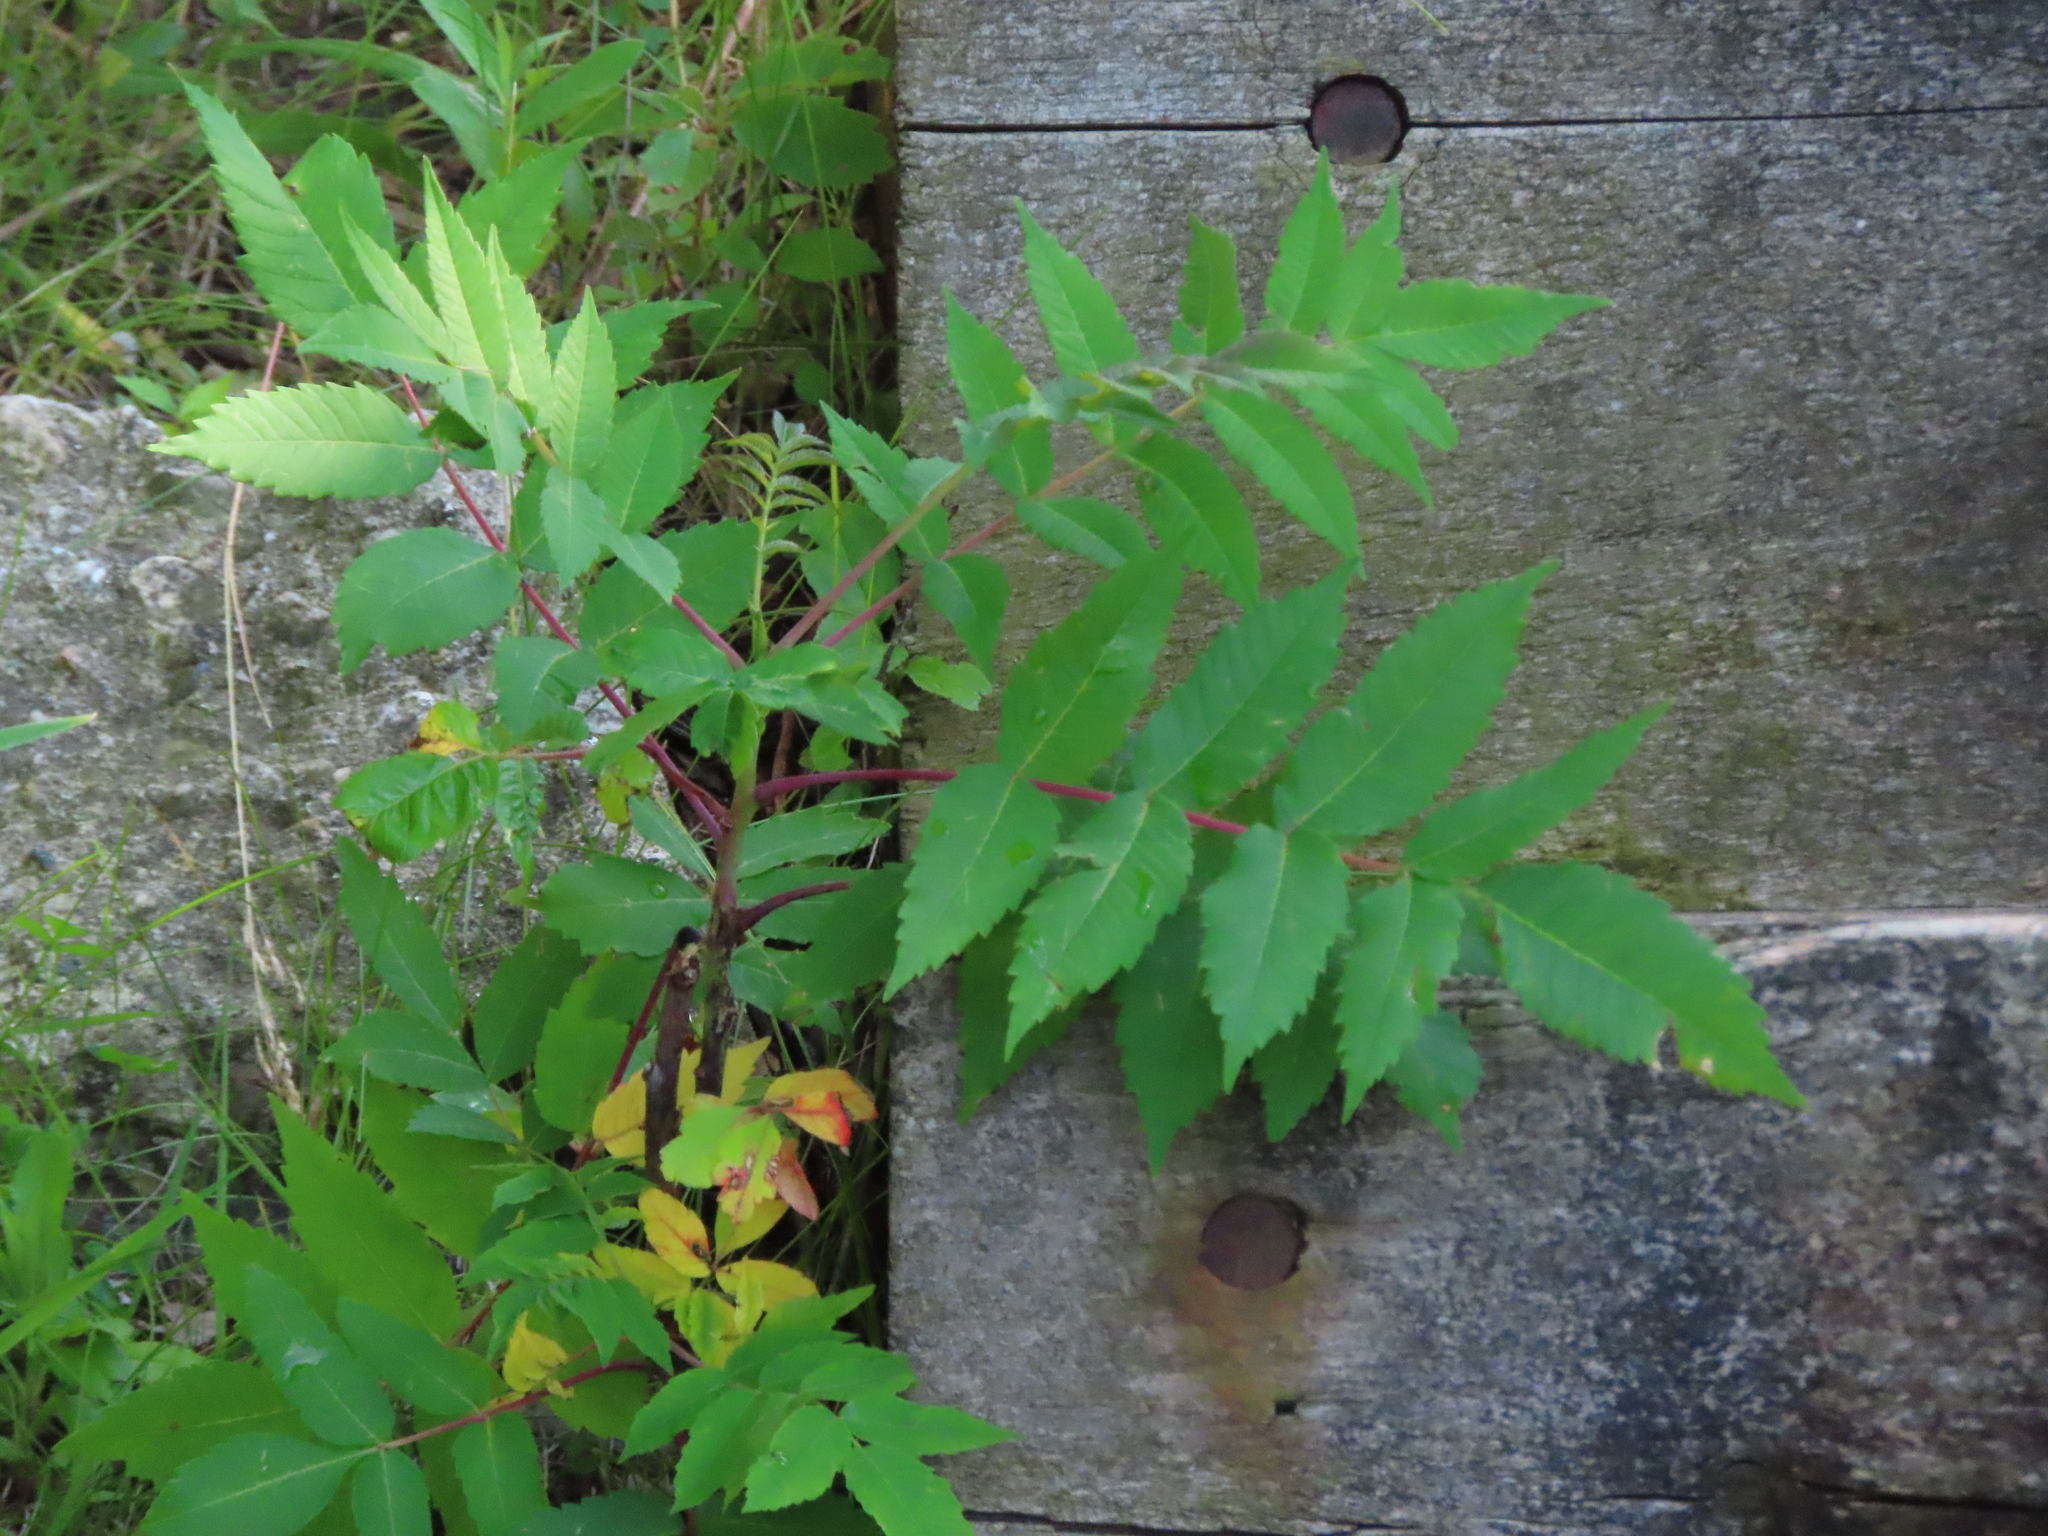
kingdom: Plantae
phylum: Tracheophyta
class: Magnoliopsida
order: Sapindales
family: Anacardiaceae
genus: Rhus
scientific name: Rhus glabra
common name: Scarlet sumac
